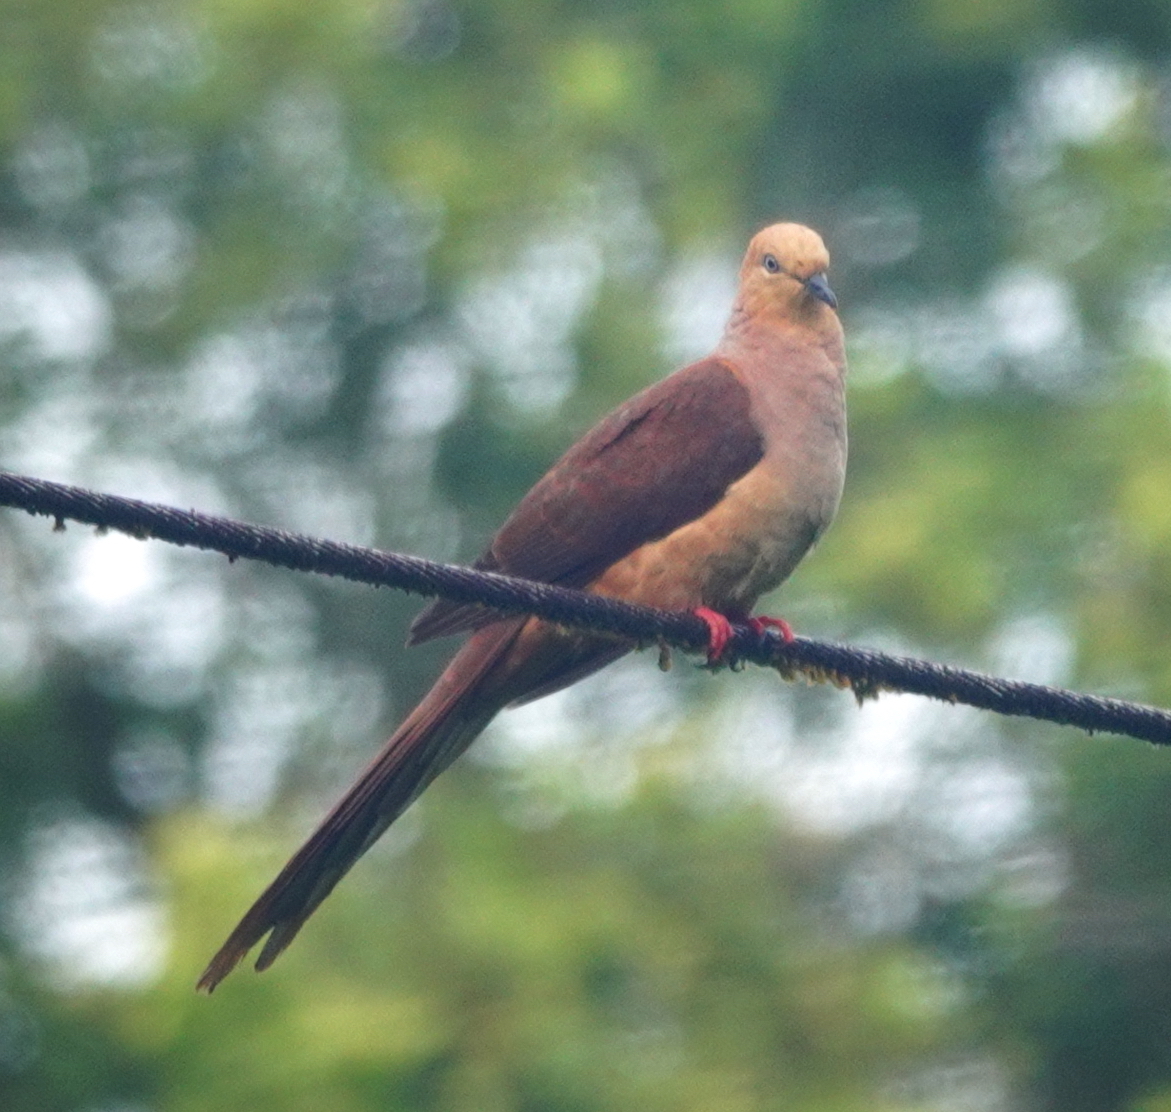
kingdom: Animalia
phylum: Chordata
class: Aves
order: Columbiformes
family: Columbidae
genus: Macropygia
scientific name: Macropygia doreya
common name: Sultan's cuckoo-dove
